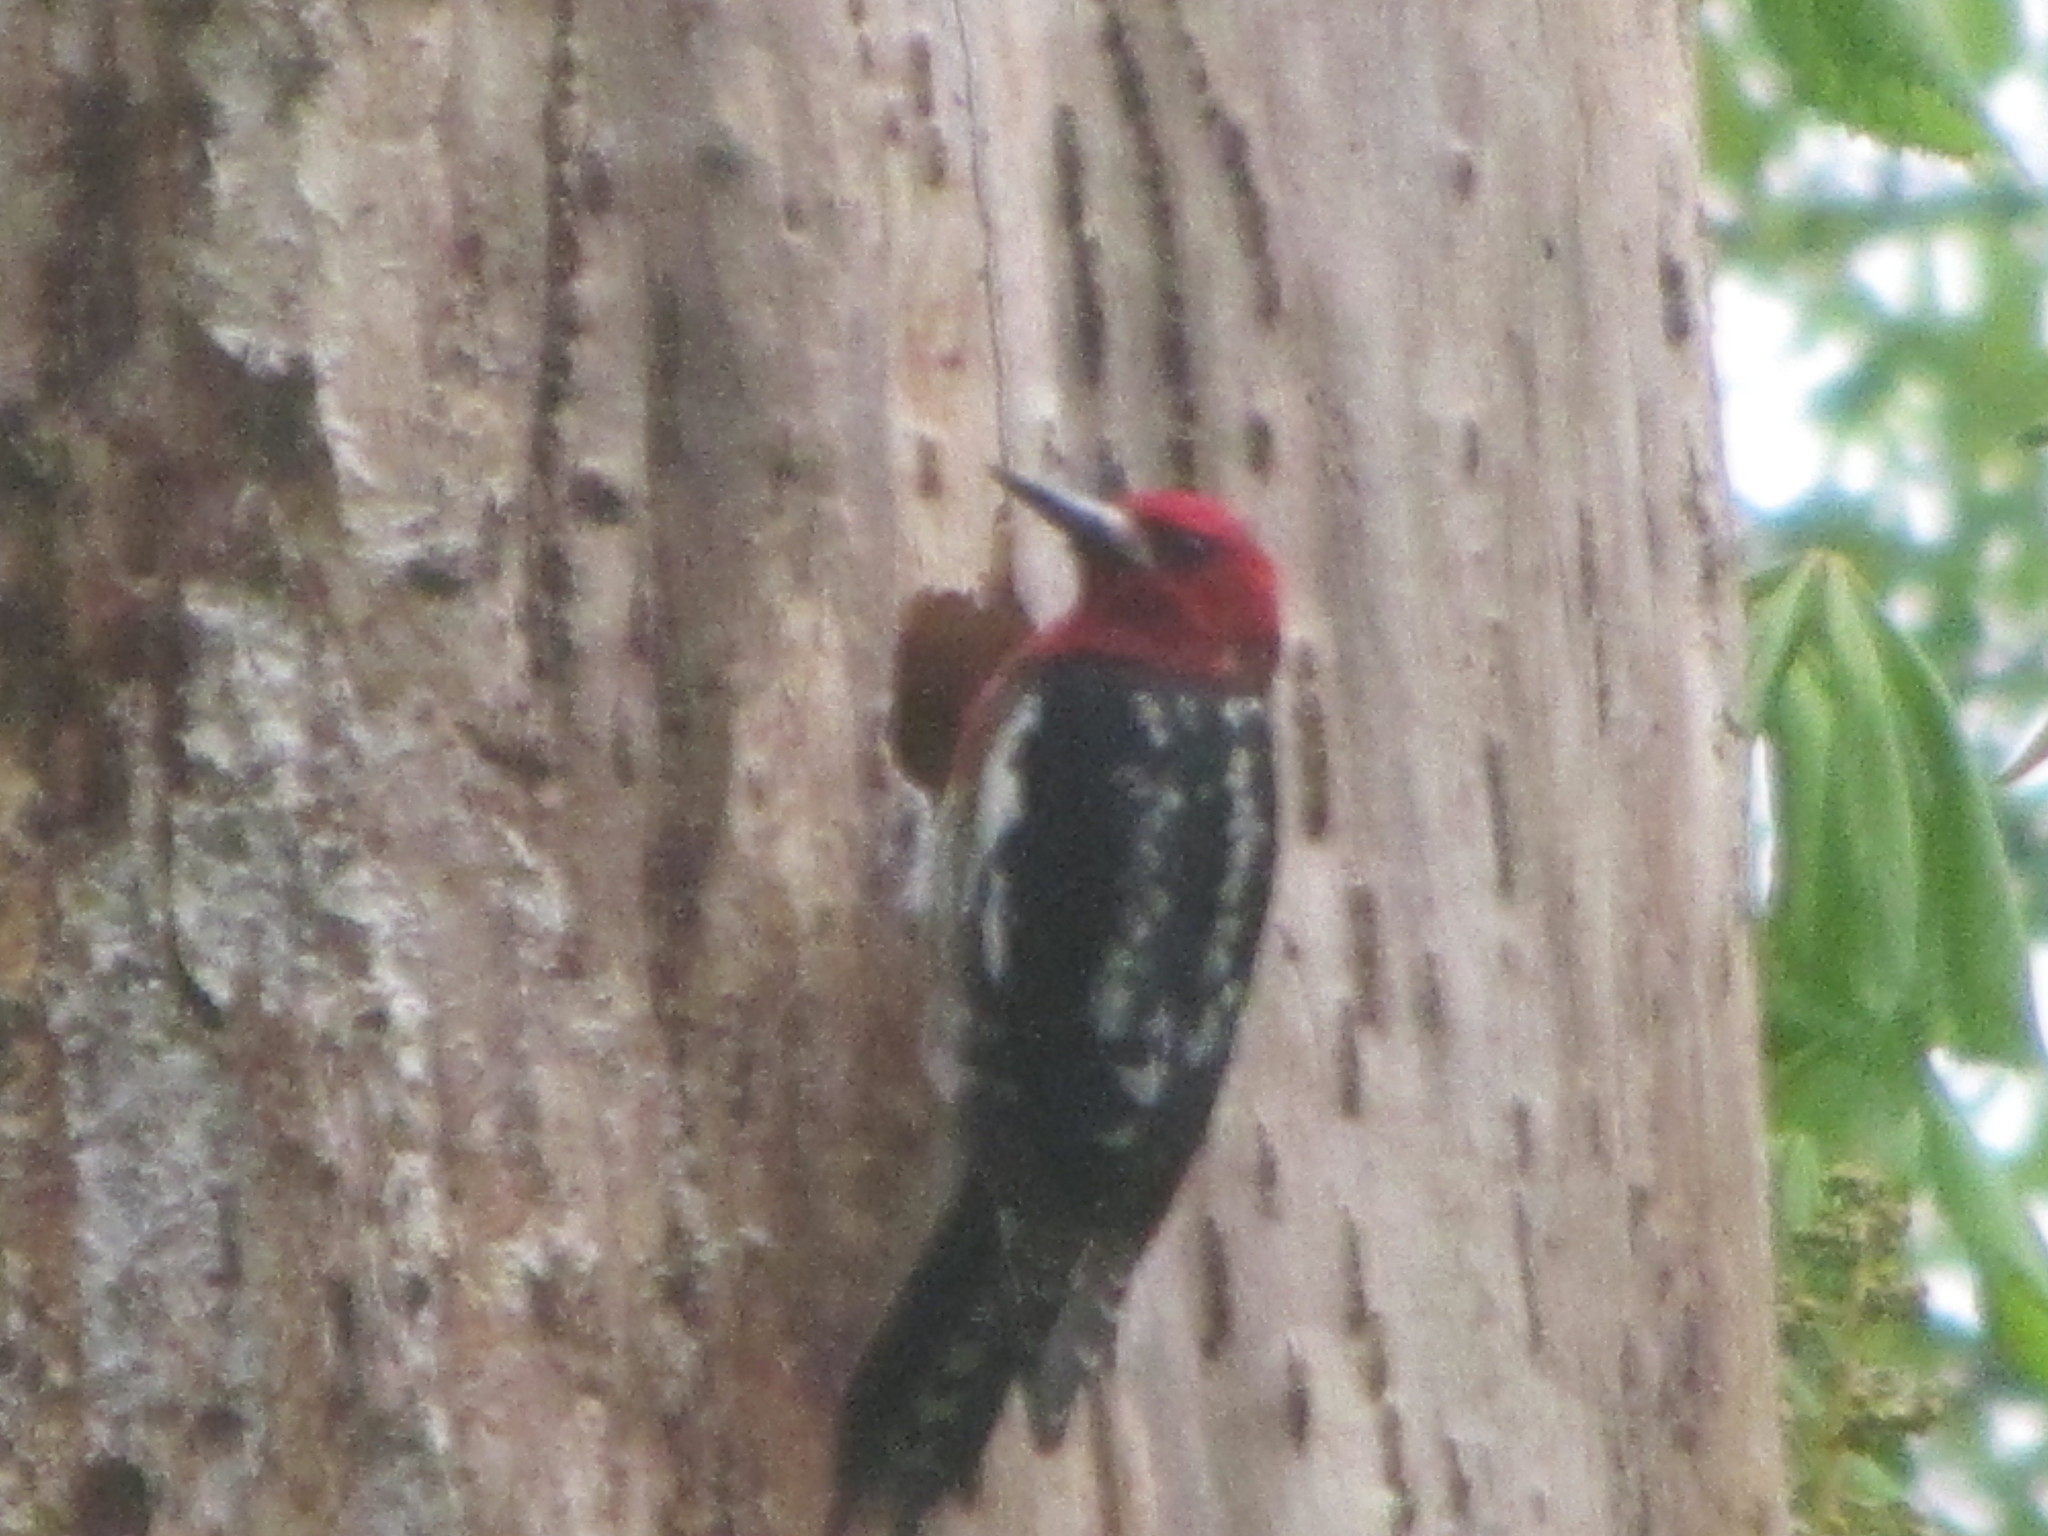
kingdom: Animalia
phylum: Chordata
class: Aves
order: Piciformes
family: Picidae
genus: Sphyrapicus
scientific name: Sphyrapicus ruber
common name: Red-breasted sapsucker
